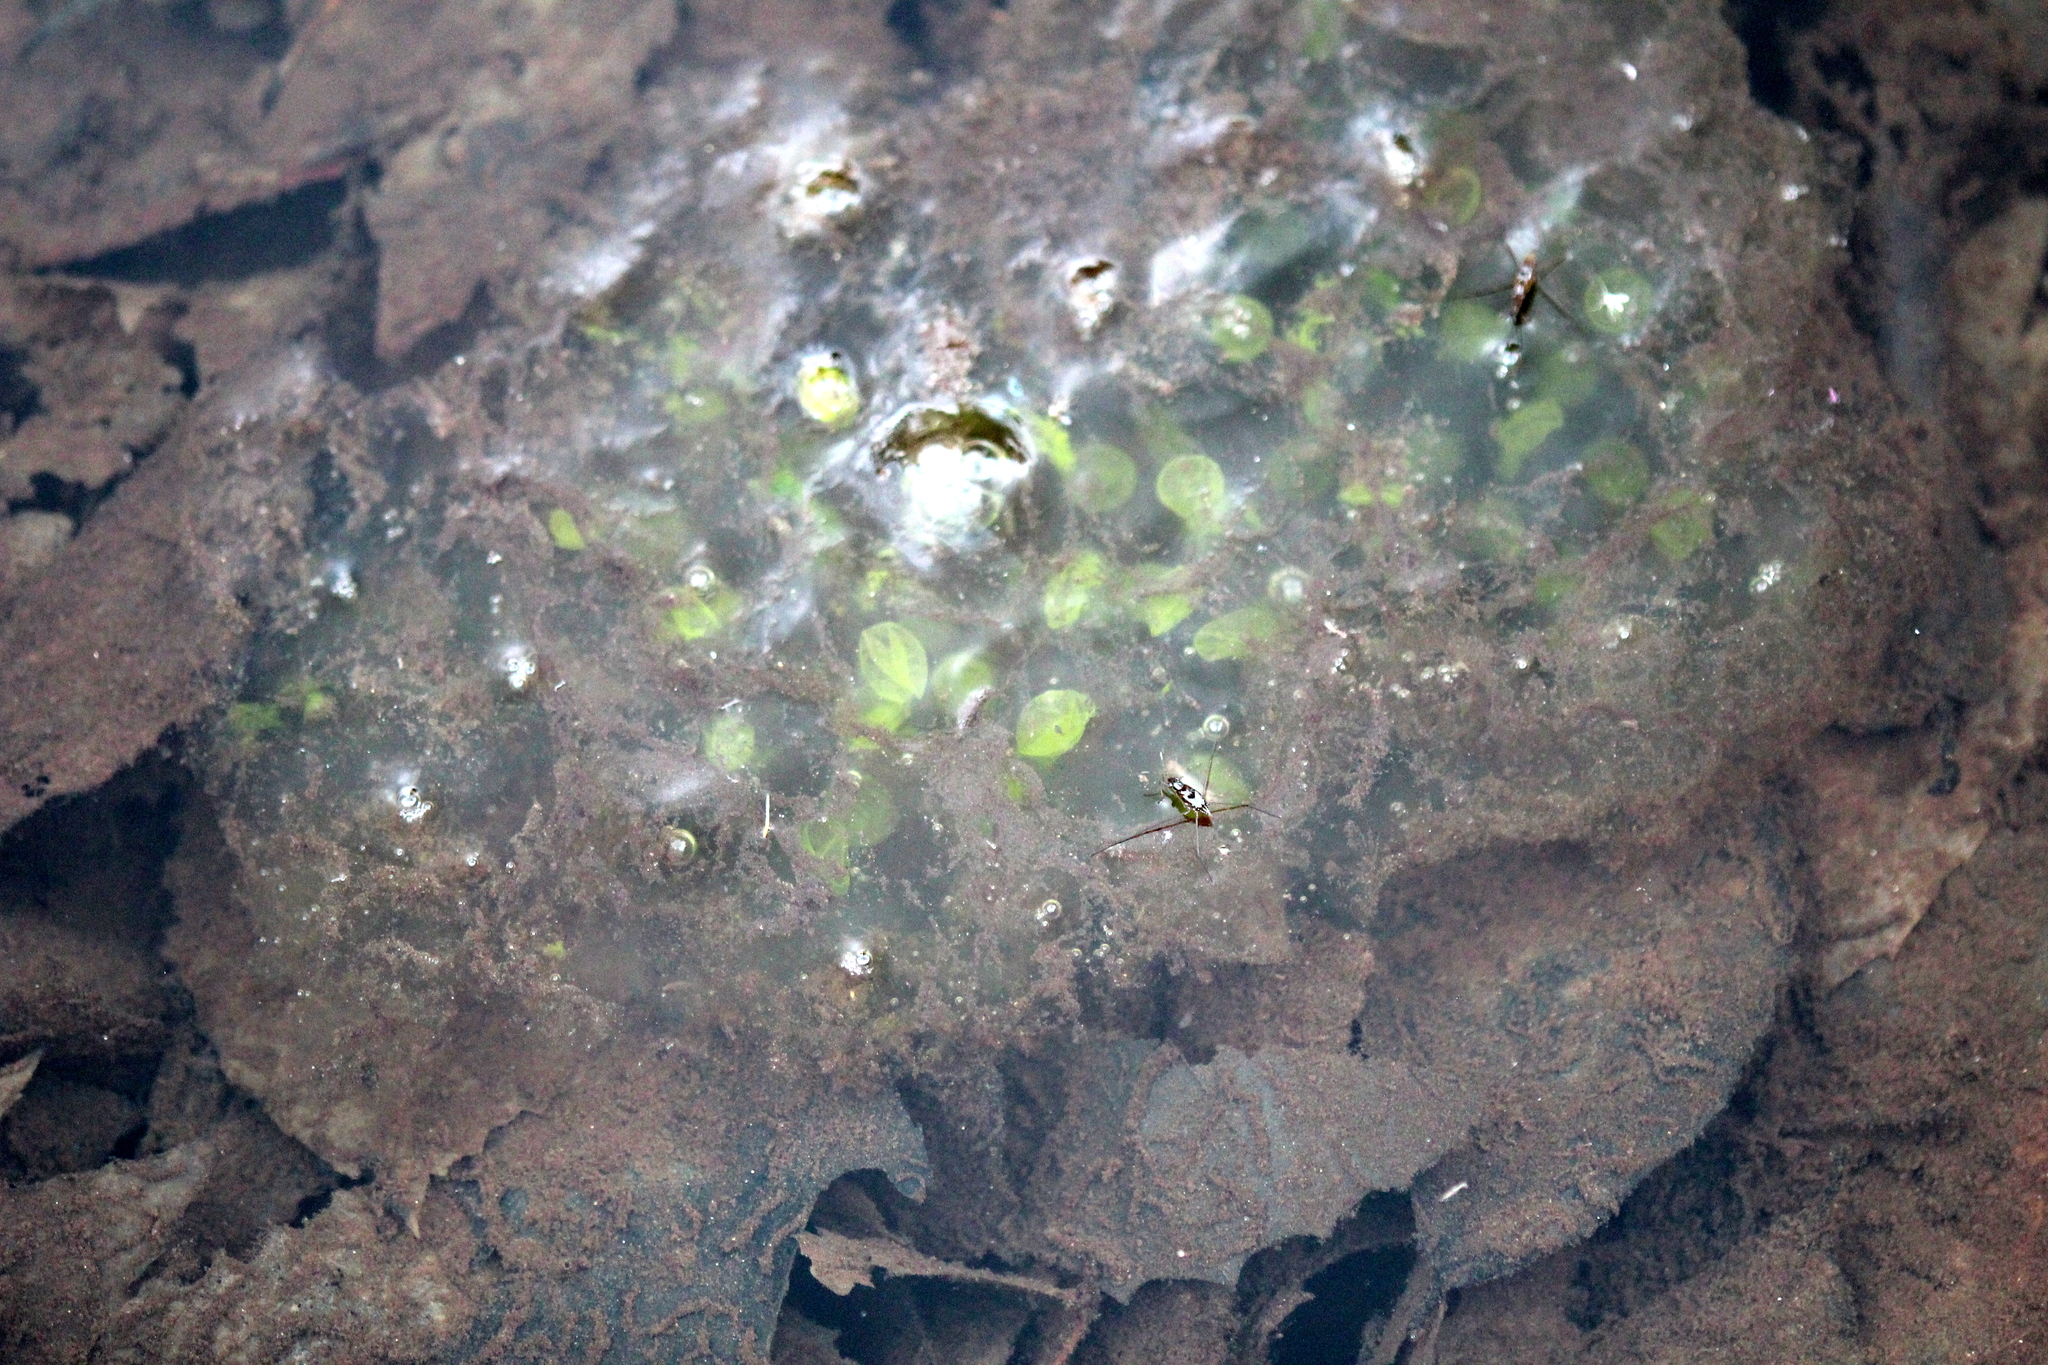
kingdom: Animalia
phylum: Chordata
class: Amphibia
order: Caudata
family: Ambystomatidae
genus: Ambystoma
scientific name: Ambystoma maculatum
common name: Spotted salamander
